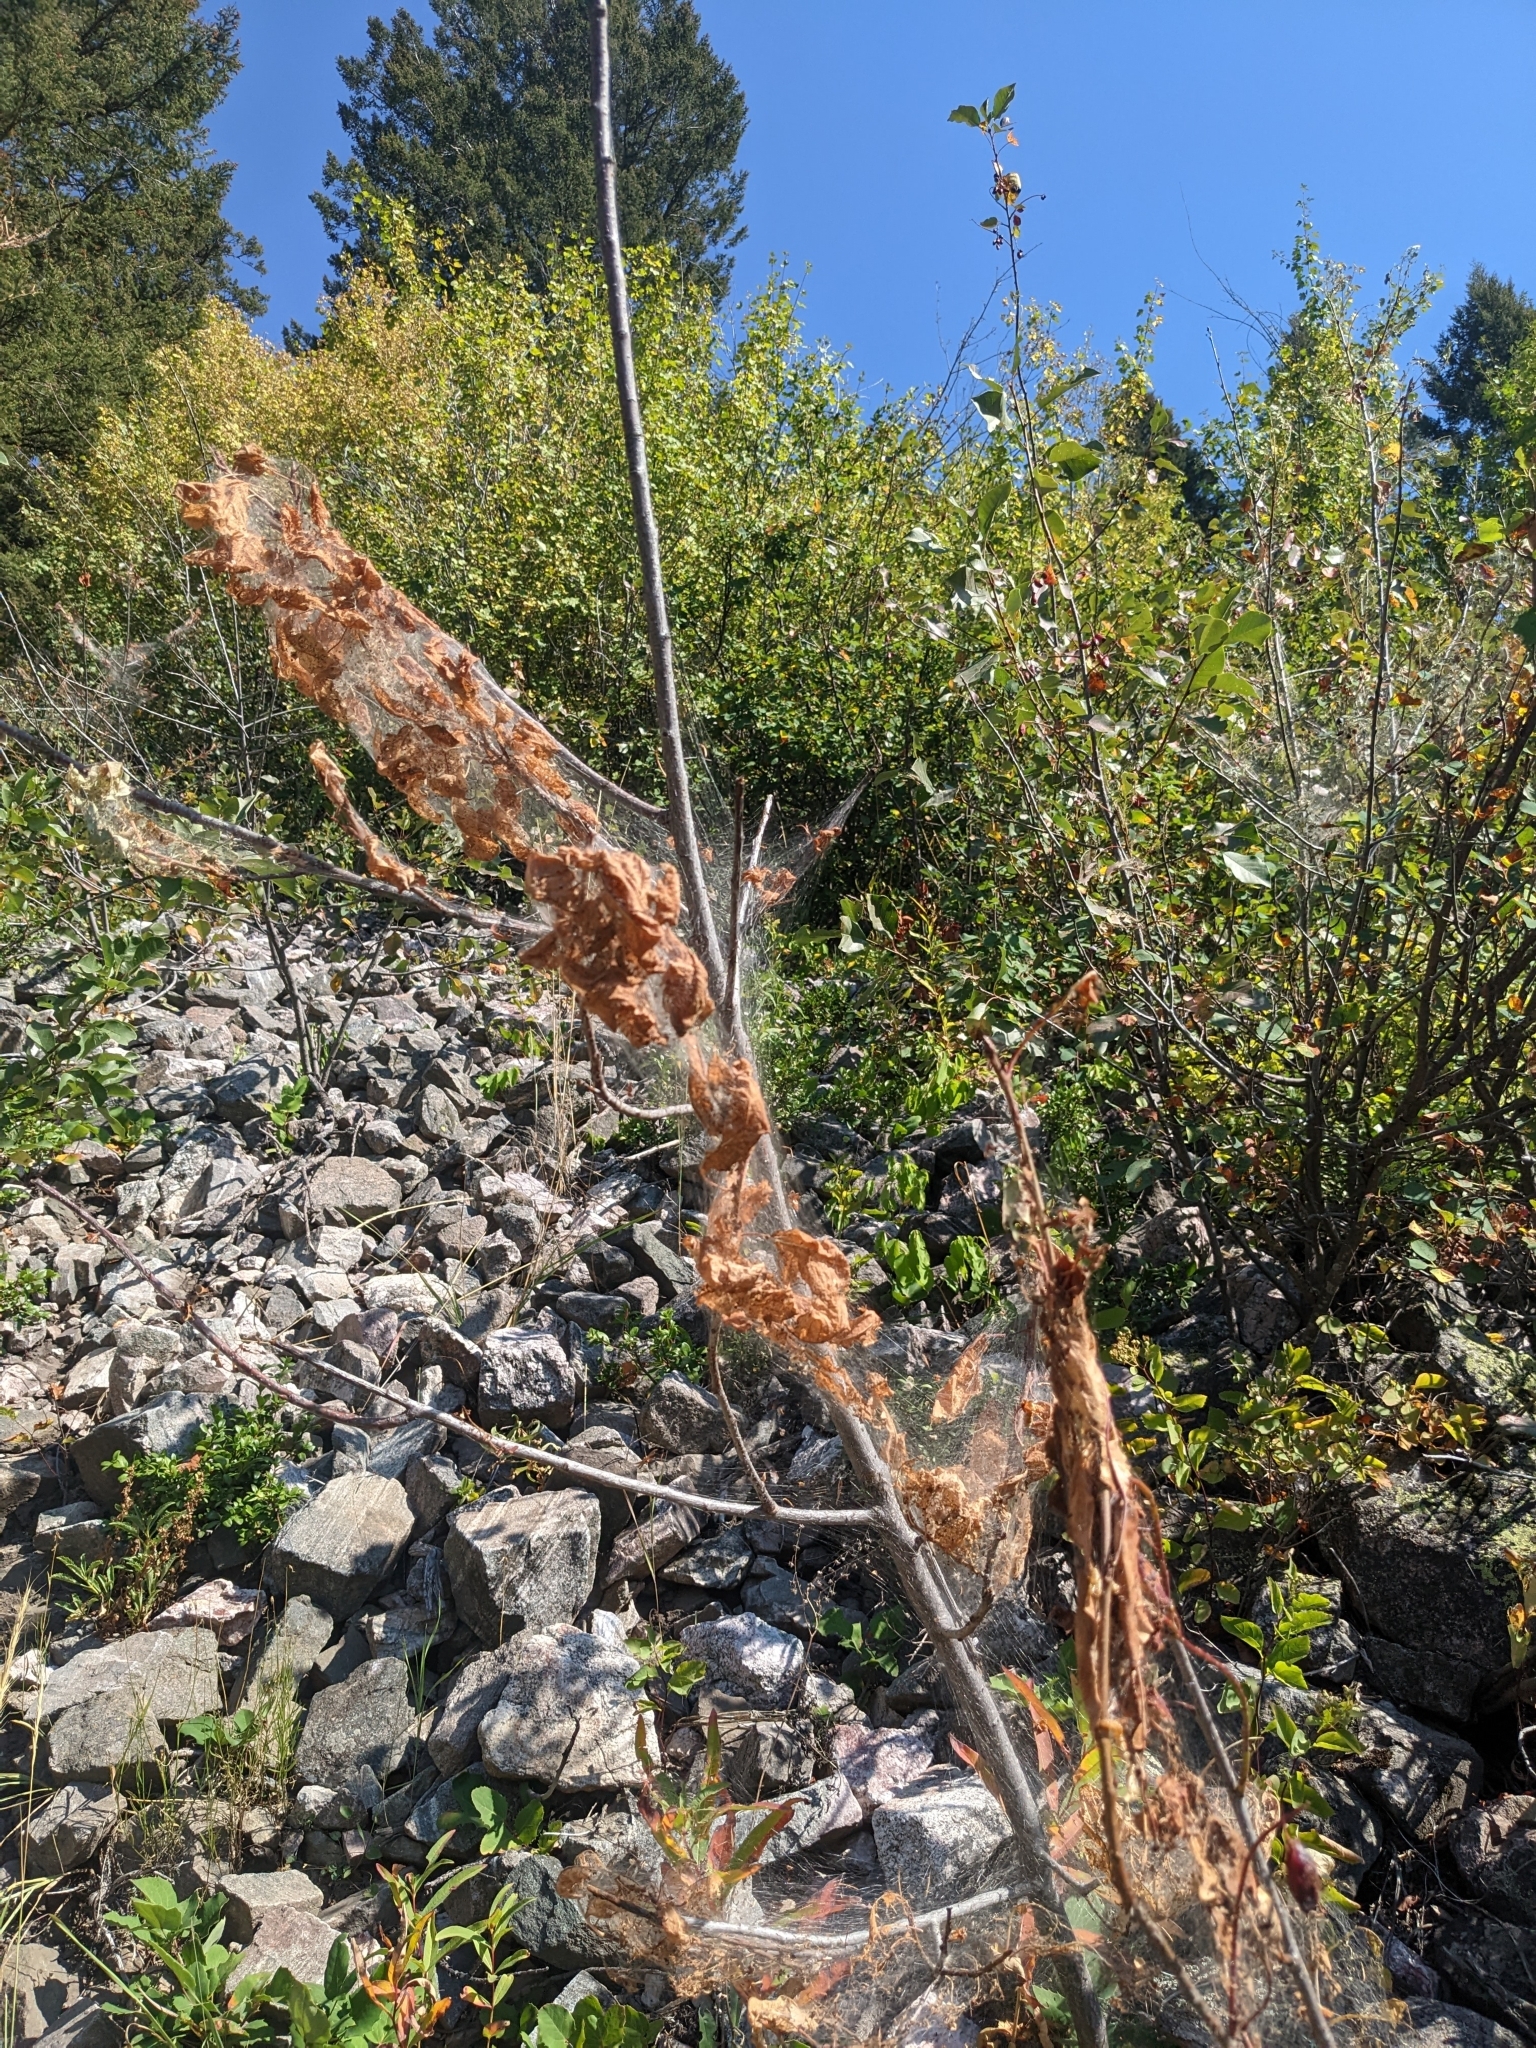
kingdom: Animalia
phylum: Arthropoda
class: Insecta
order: Lepidoptera
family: Erebidae
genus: Hyphantria
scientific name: Hyphantria cunea
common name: American white moth
